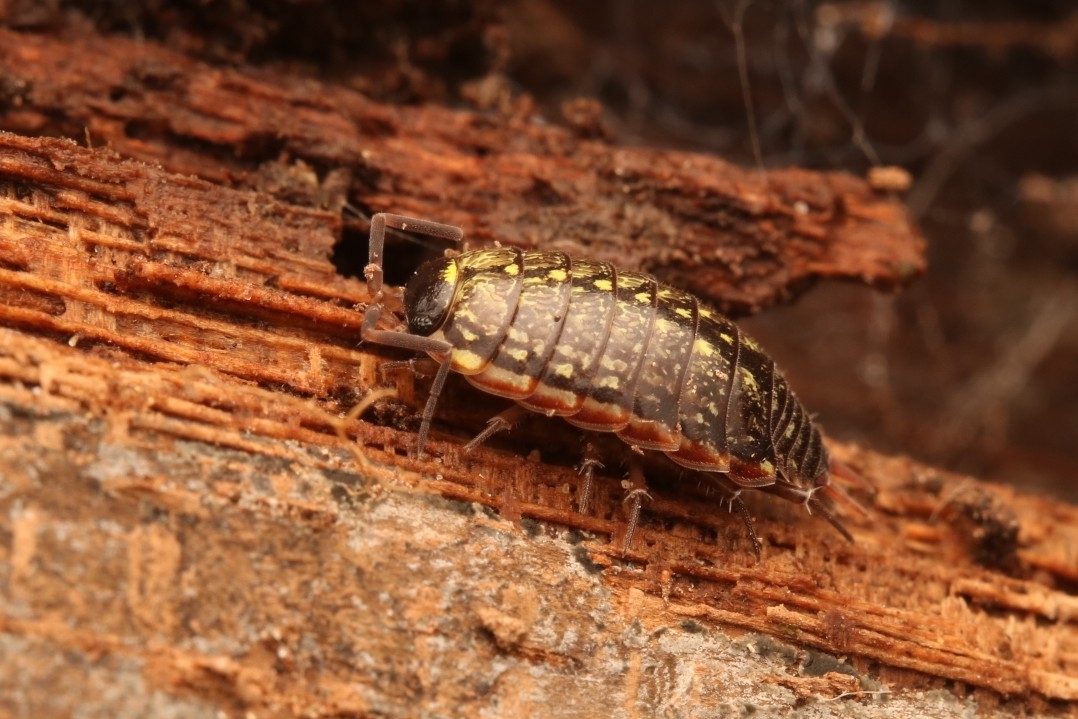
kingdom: Animalia
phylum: Arthropoda
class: Malacostraca
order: Isopoda
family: Philosciidae
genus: Philoscia
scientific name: Philoscia muscorum
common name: Common striped woodlouse
